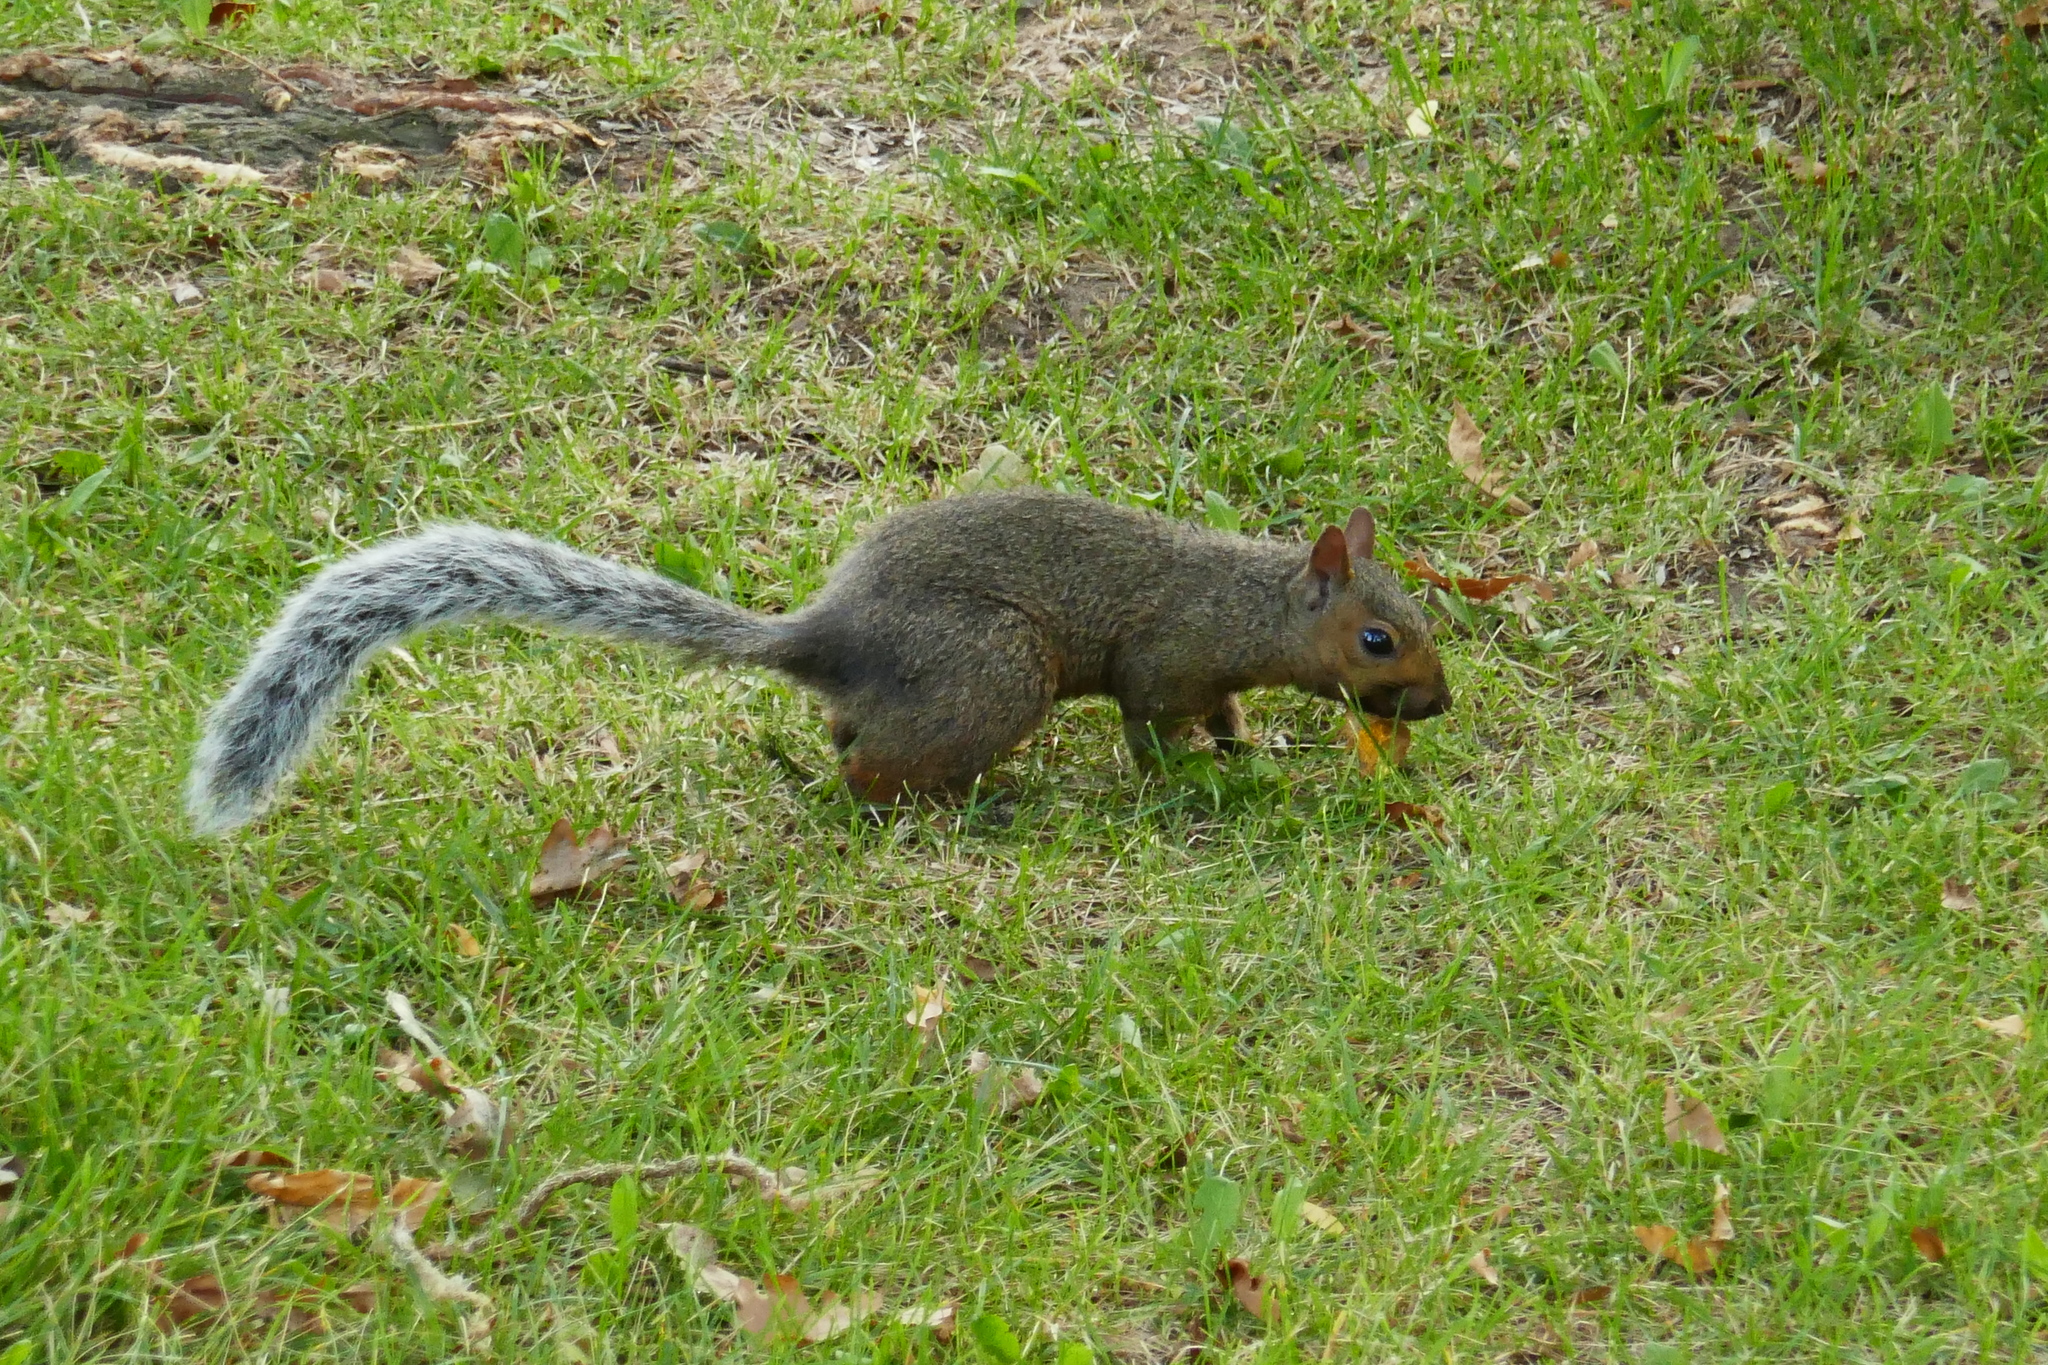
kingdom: Animalia
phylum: Chordata
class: Mammalia
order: Rodentia
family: Sciuridae
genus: Sciurus
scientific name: Sciurus carolinensis
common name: Eastern gray squirrel
